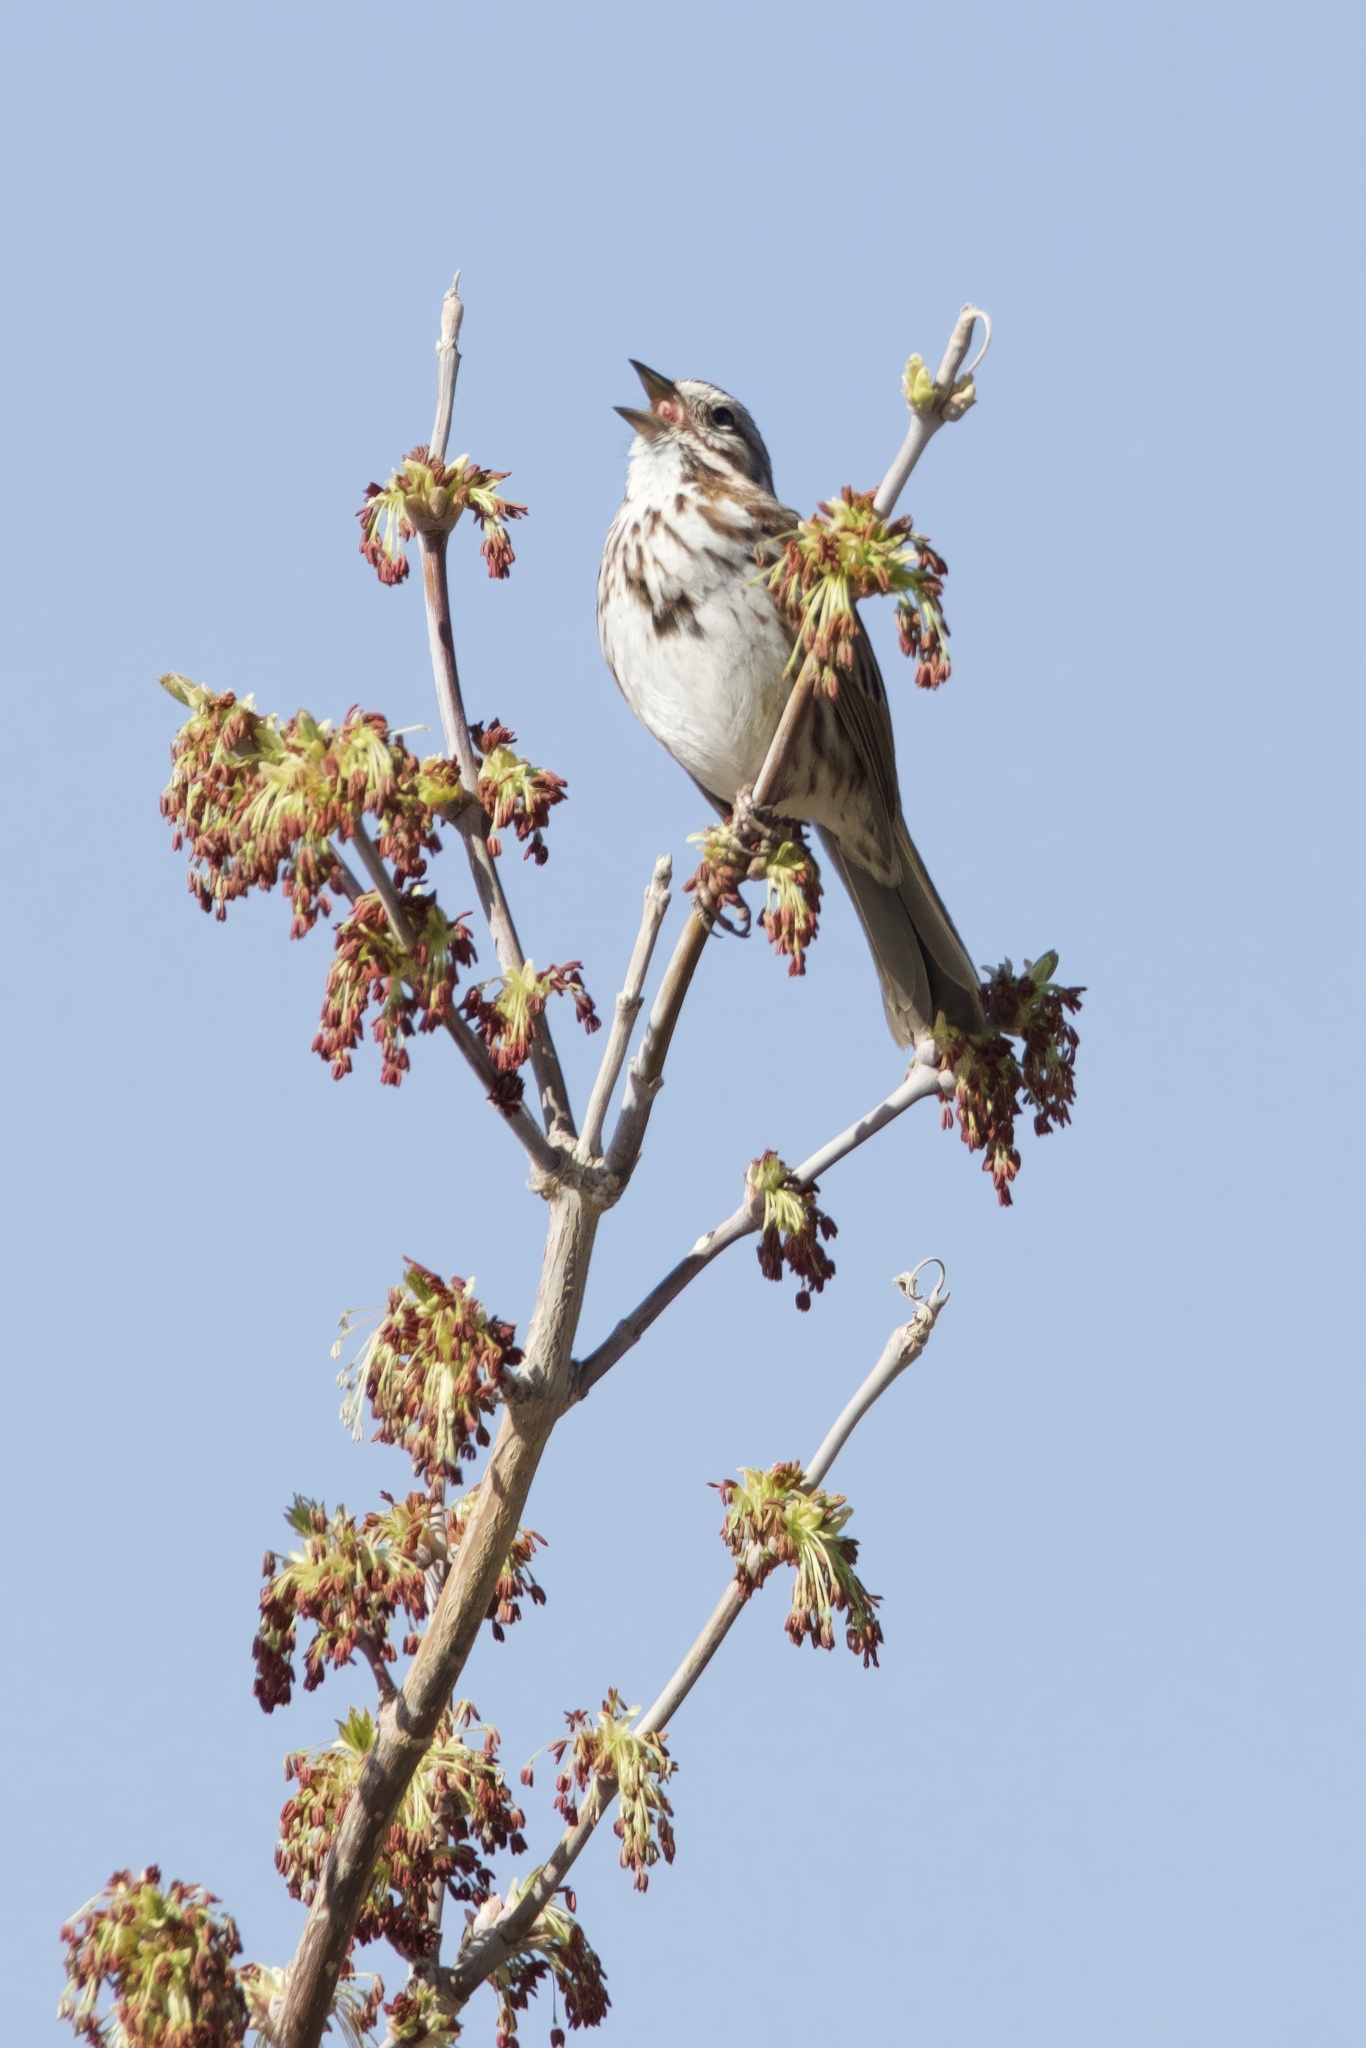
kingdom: Animalia
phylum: Chordata
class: Aves
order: Passeriformes
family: Passerellidae
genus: Melospiza
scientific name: Melospiza melodia
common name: Song sparrow
